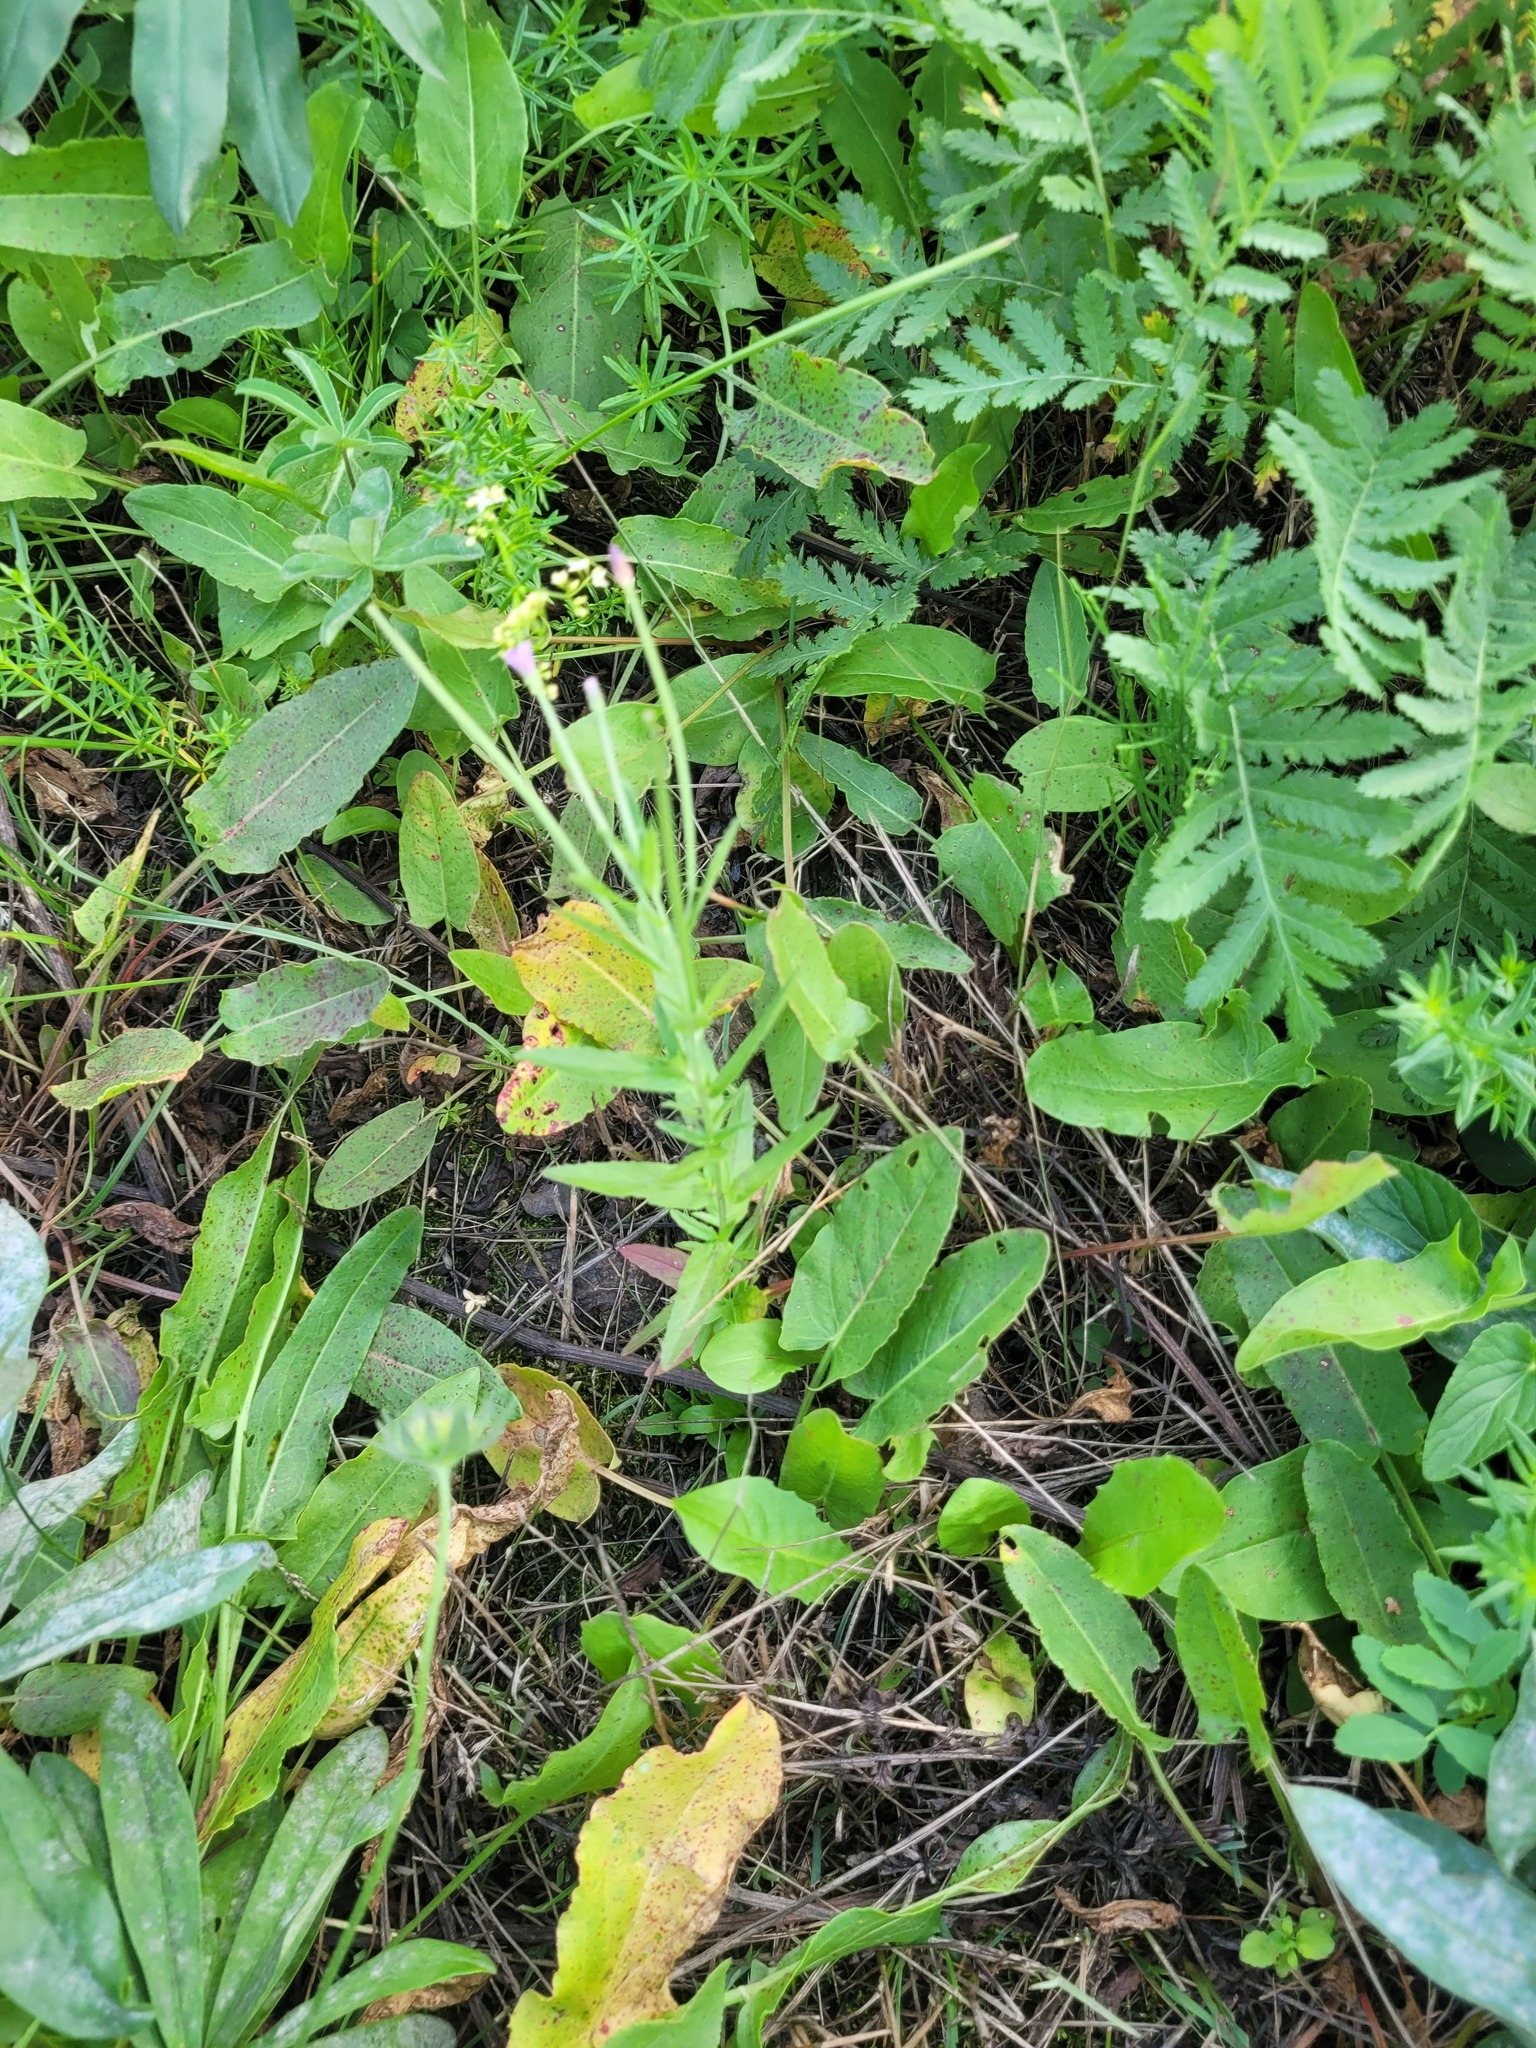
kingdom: Plantae
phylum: Tracheophyta
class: Magnoliopsida
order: Myrtales
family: Onagraceae
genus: Epilobium
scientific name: Epilobium lamyi
